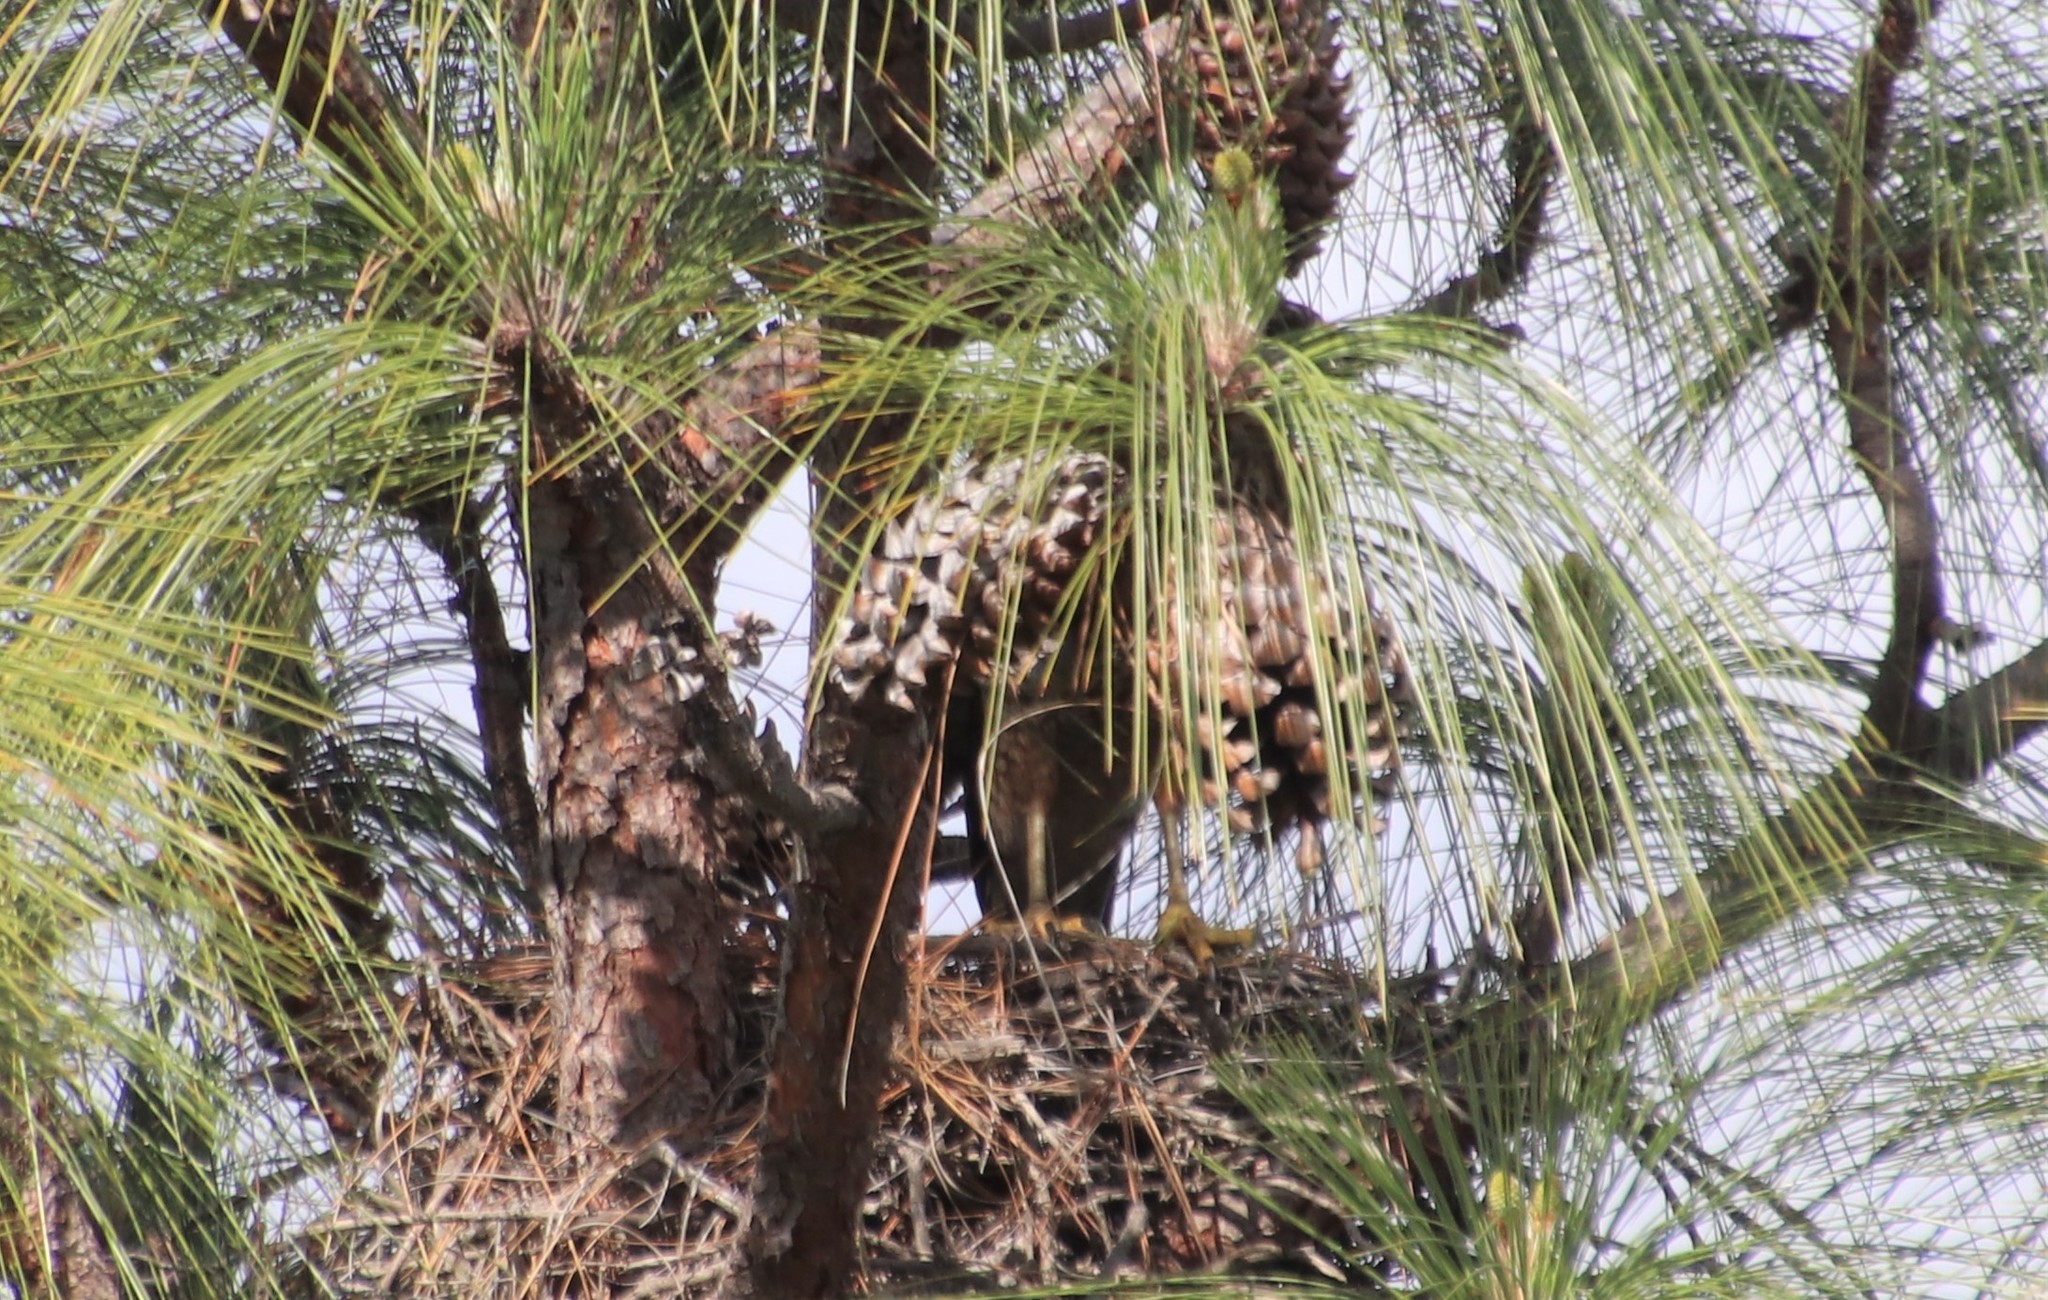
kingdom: Animalia
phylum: Chordata
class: Aves
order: Accipitriformes
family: Accipitridae
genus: Buteo
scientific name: Buteo lineatus
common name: Red-shouldered hawk
